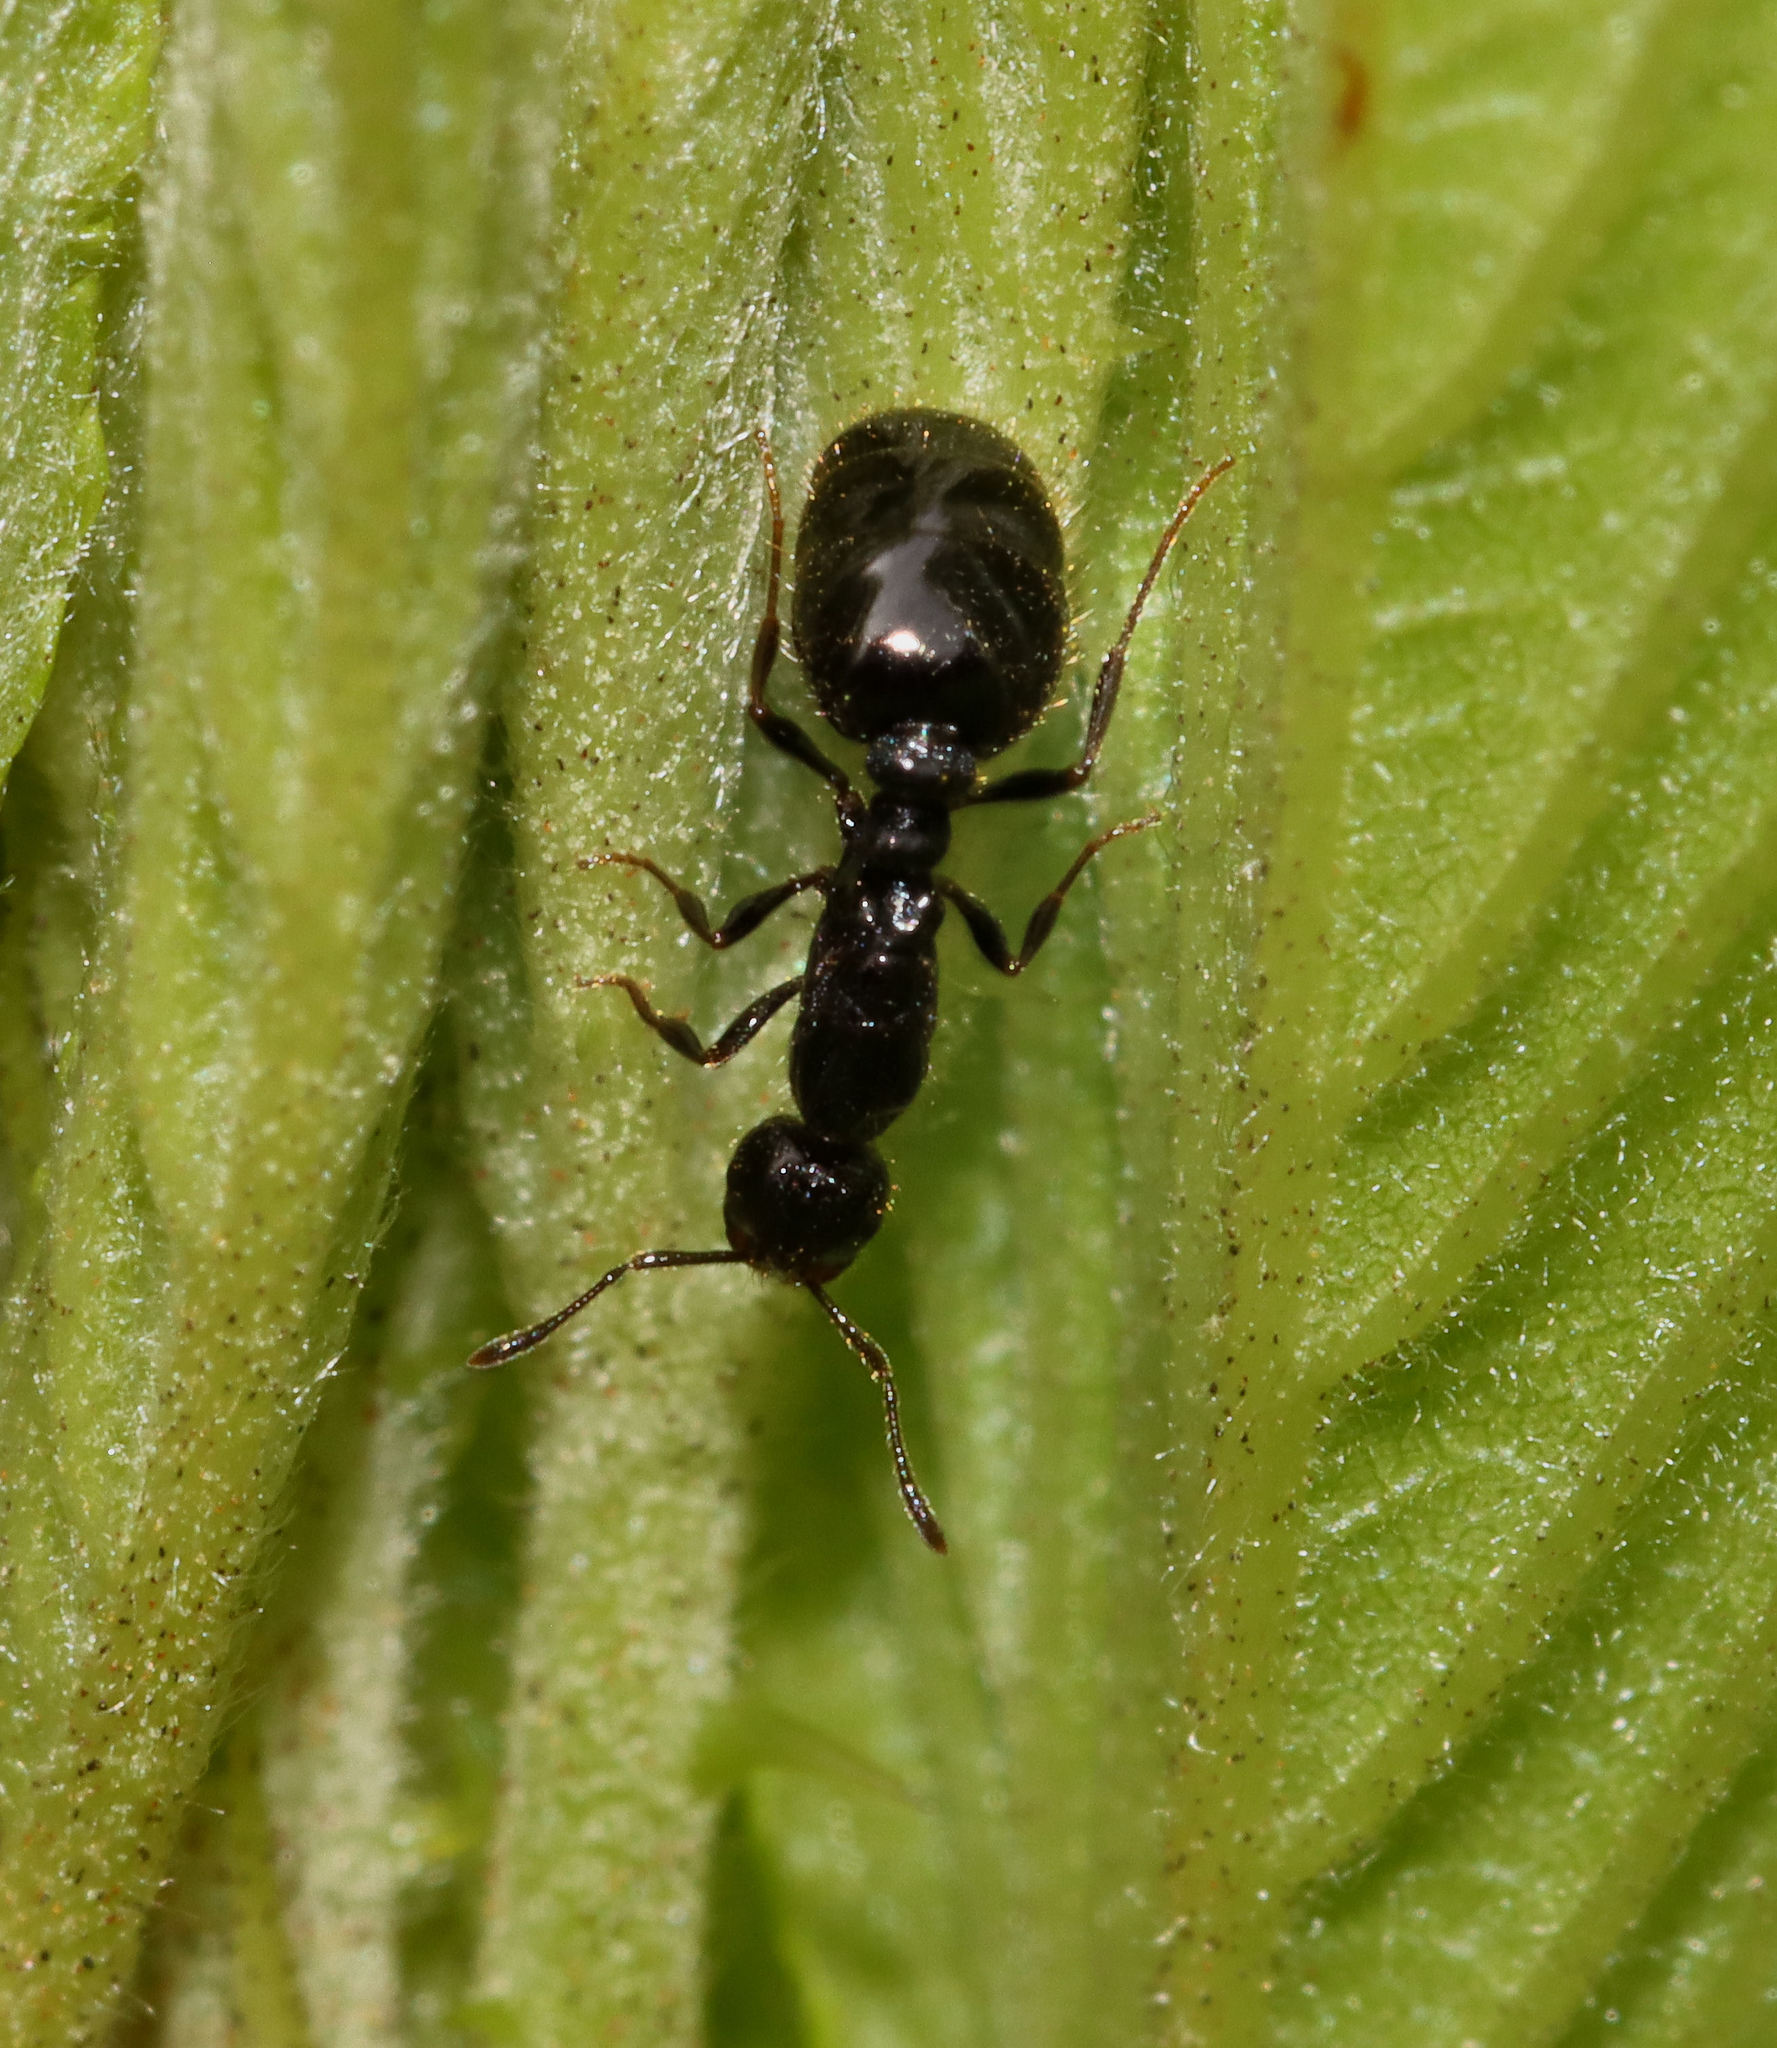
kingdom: Animalia
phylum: Arthropoda
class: Insecta
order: Hymenoptera
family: Formicidae
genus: Monomorium
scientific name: Monomorium minimum
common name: Little black ant
